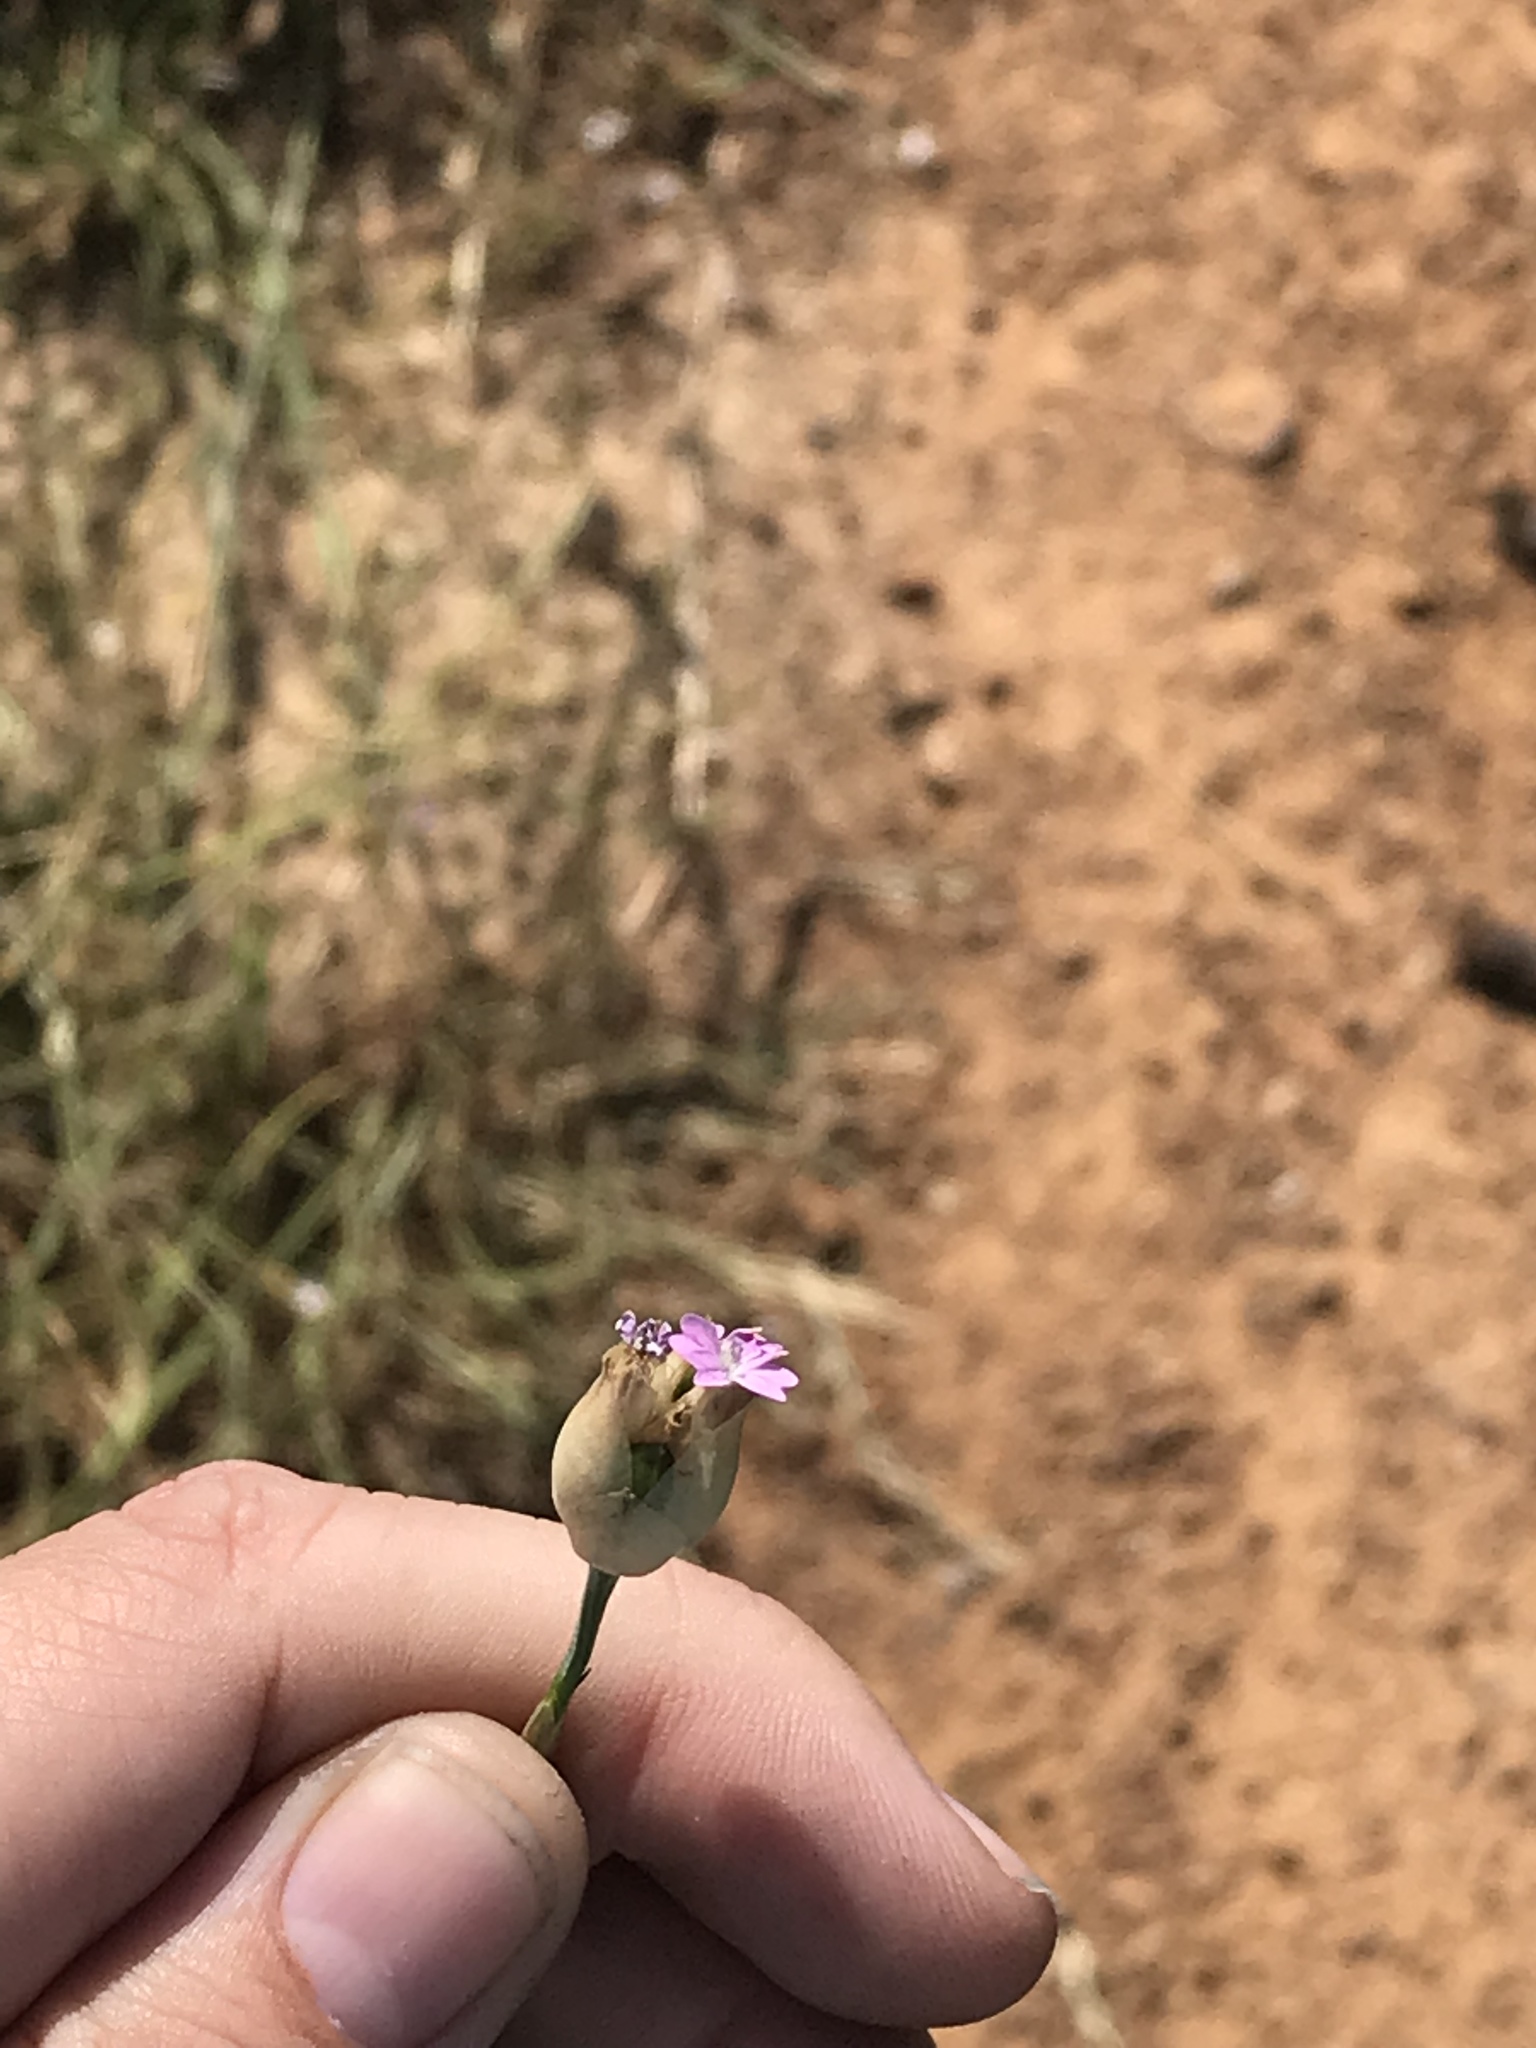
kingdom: Plantae
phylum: Tracheophyta
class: Magnoliopsida
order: Caryophyllales
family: Caryophyllaceae
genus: Petrorhagia
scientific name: Petrorhagia prolifera
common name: Proliferous pink
